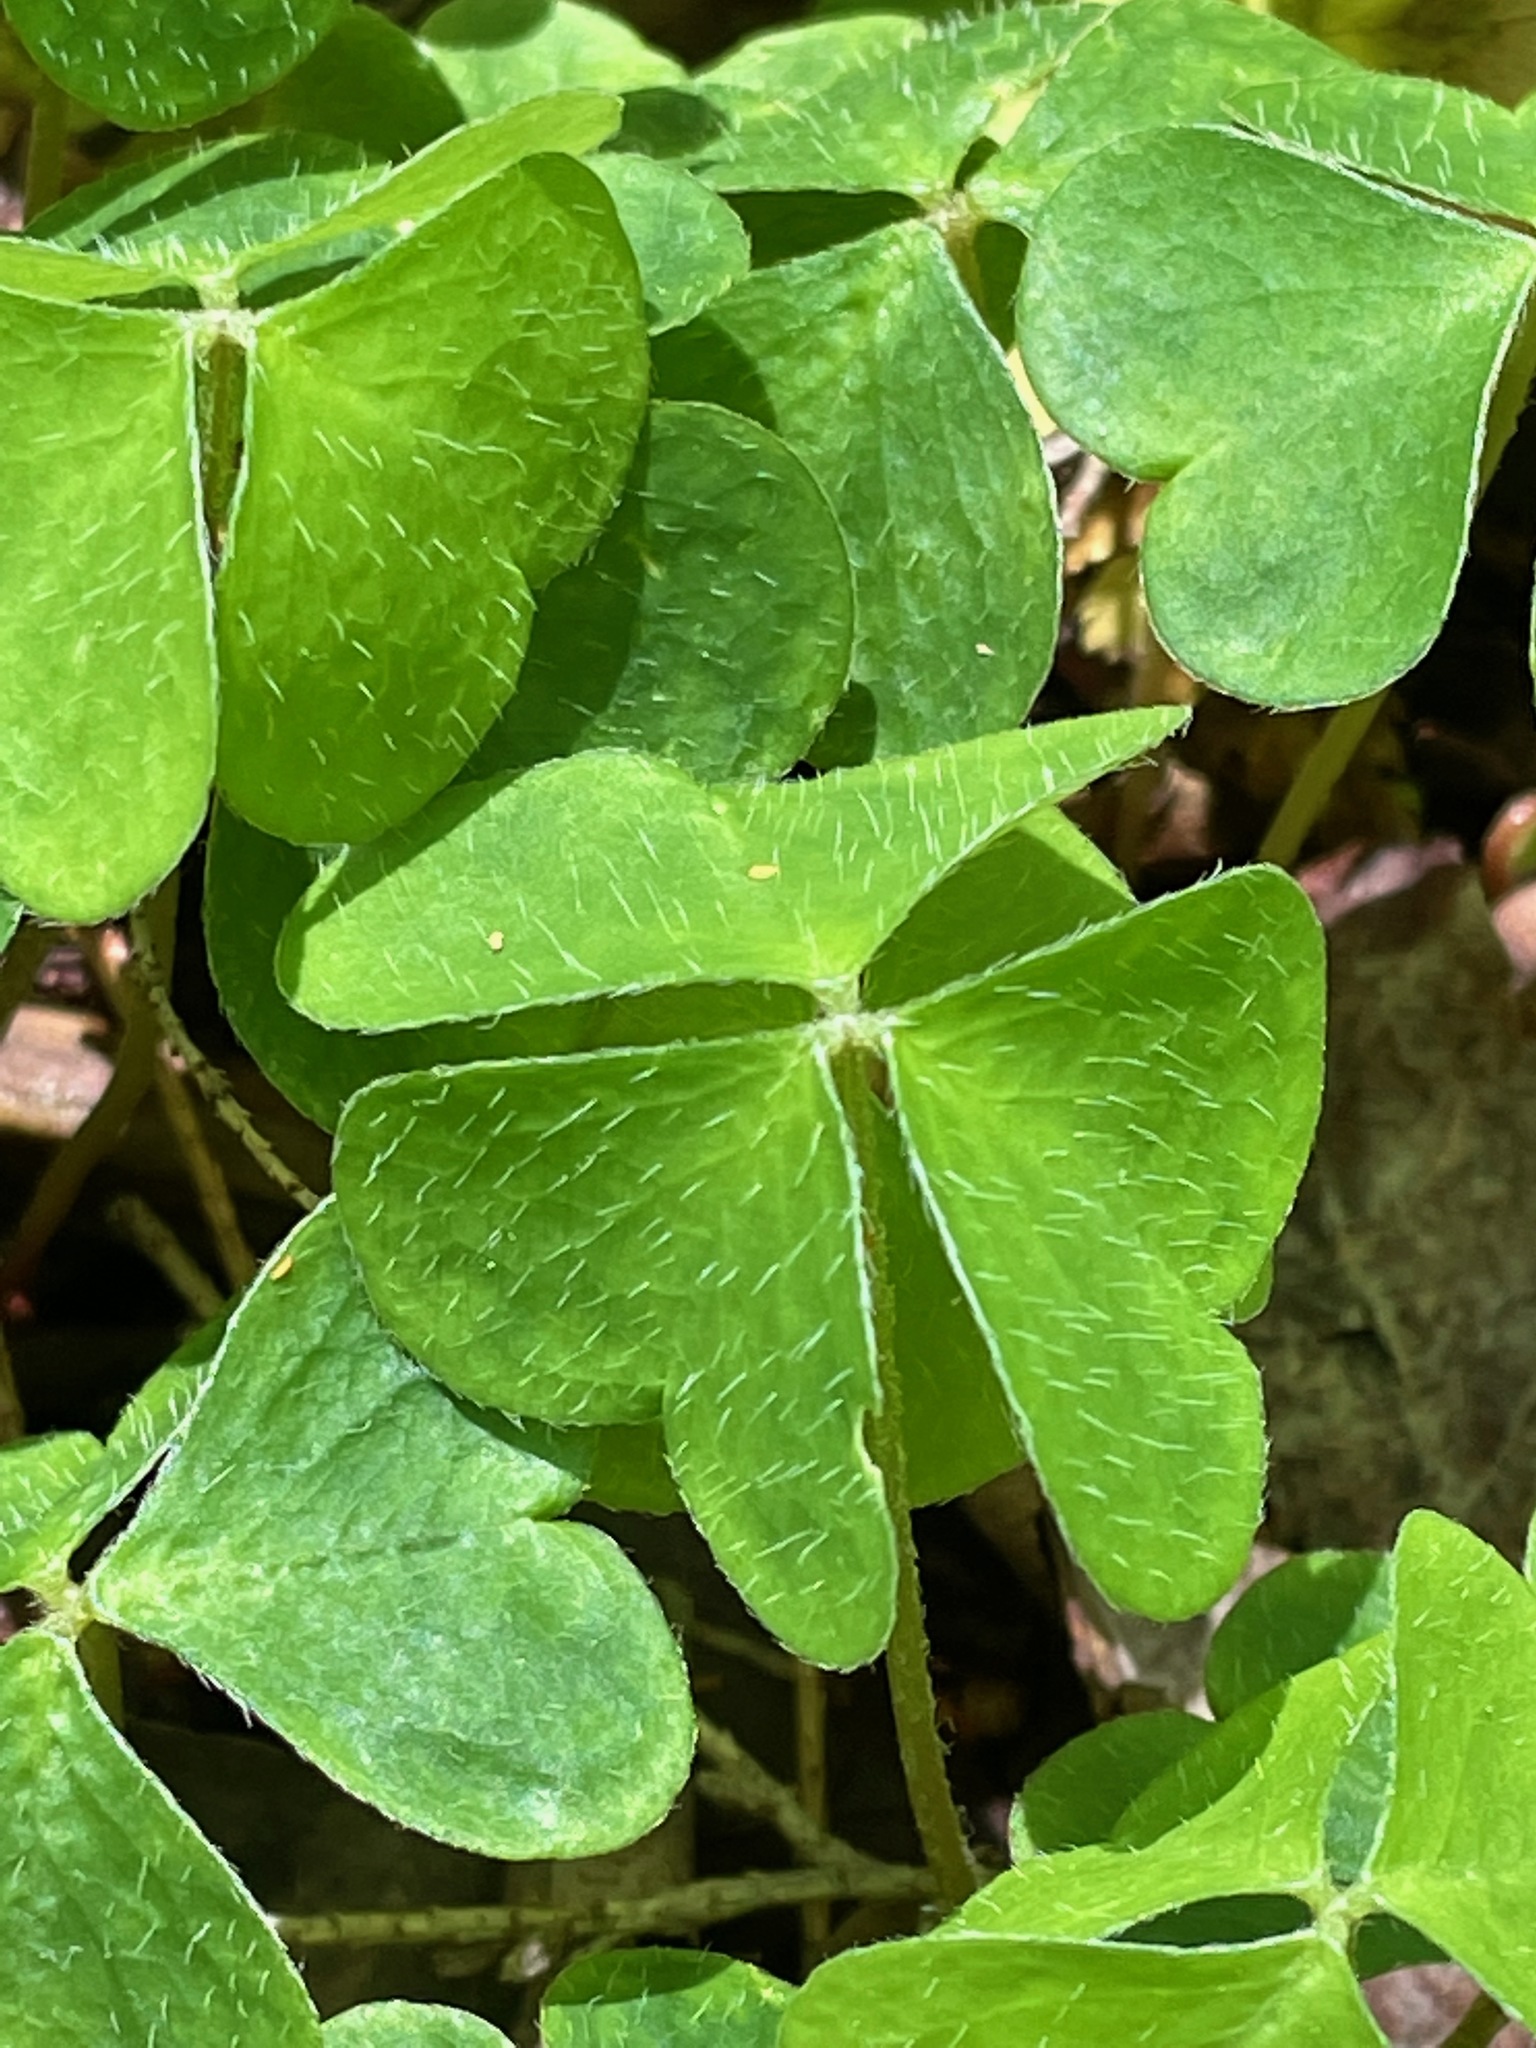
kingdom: Plantae
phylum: Tracheophyta
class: Magnoliopsida
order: Oxalidales
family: Oxalidaceae
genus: Oxalis
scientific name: Oxalis montana
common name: American wood-sorrel
